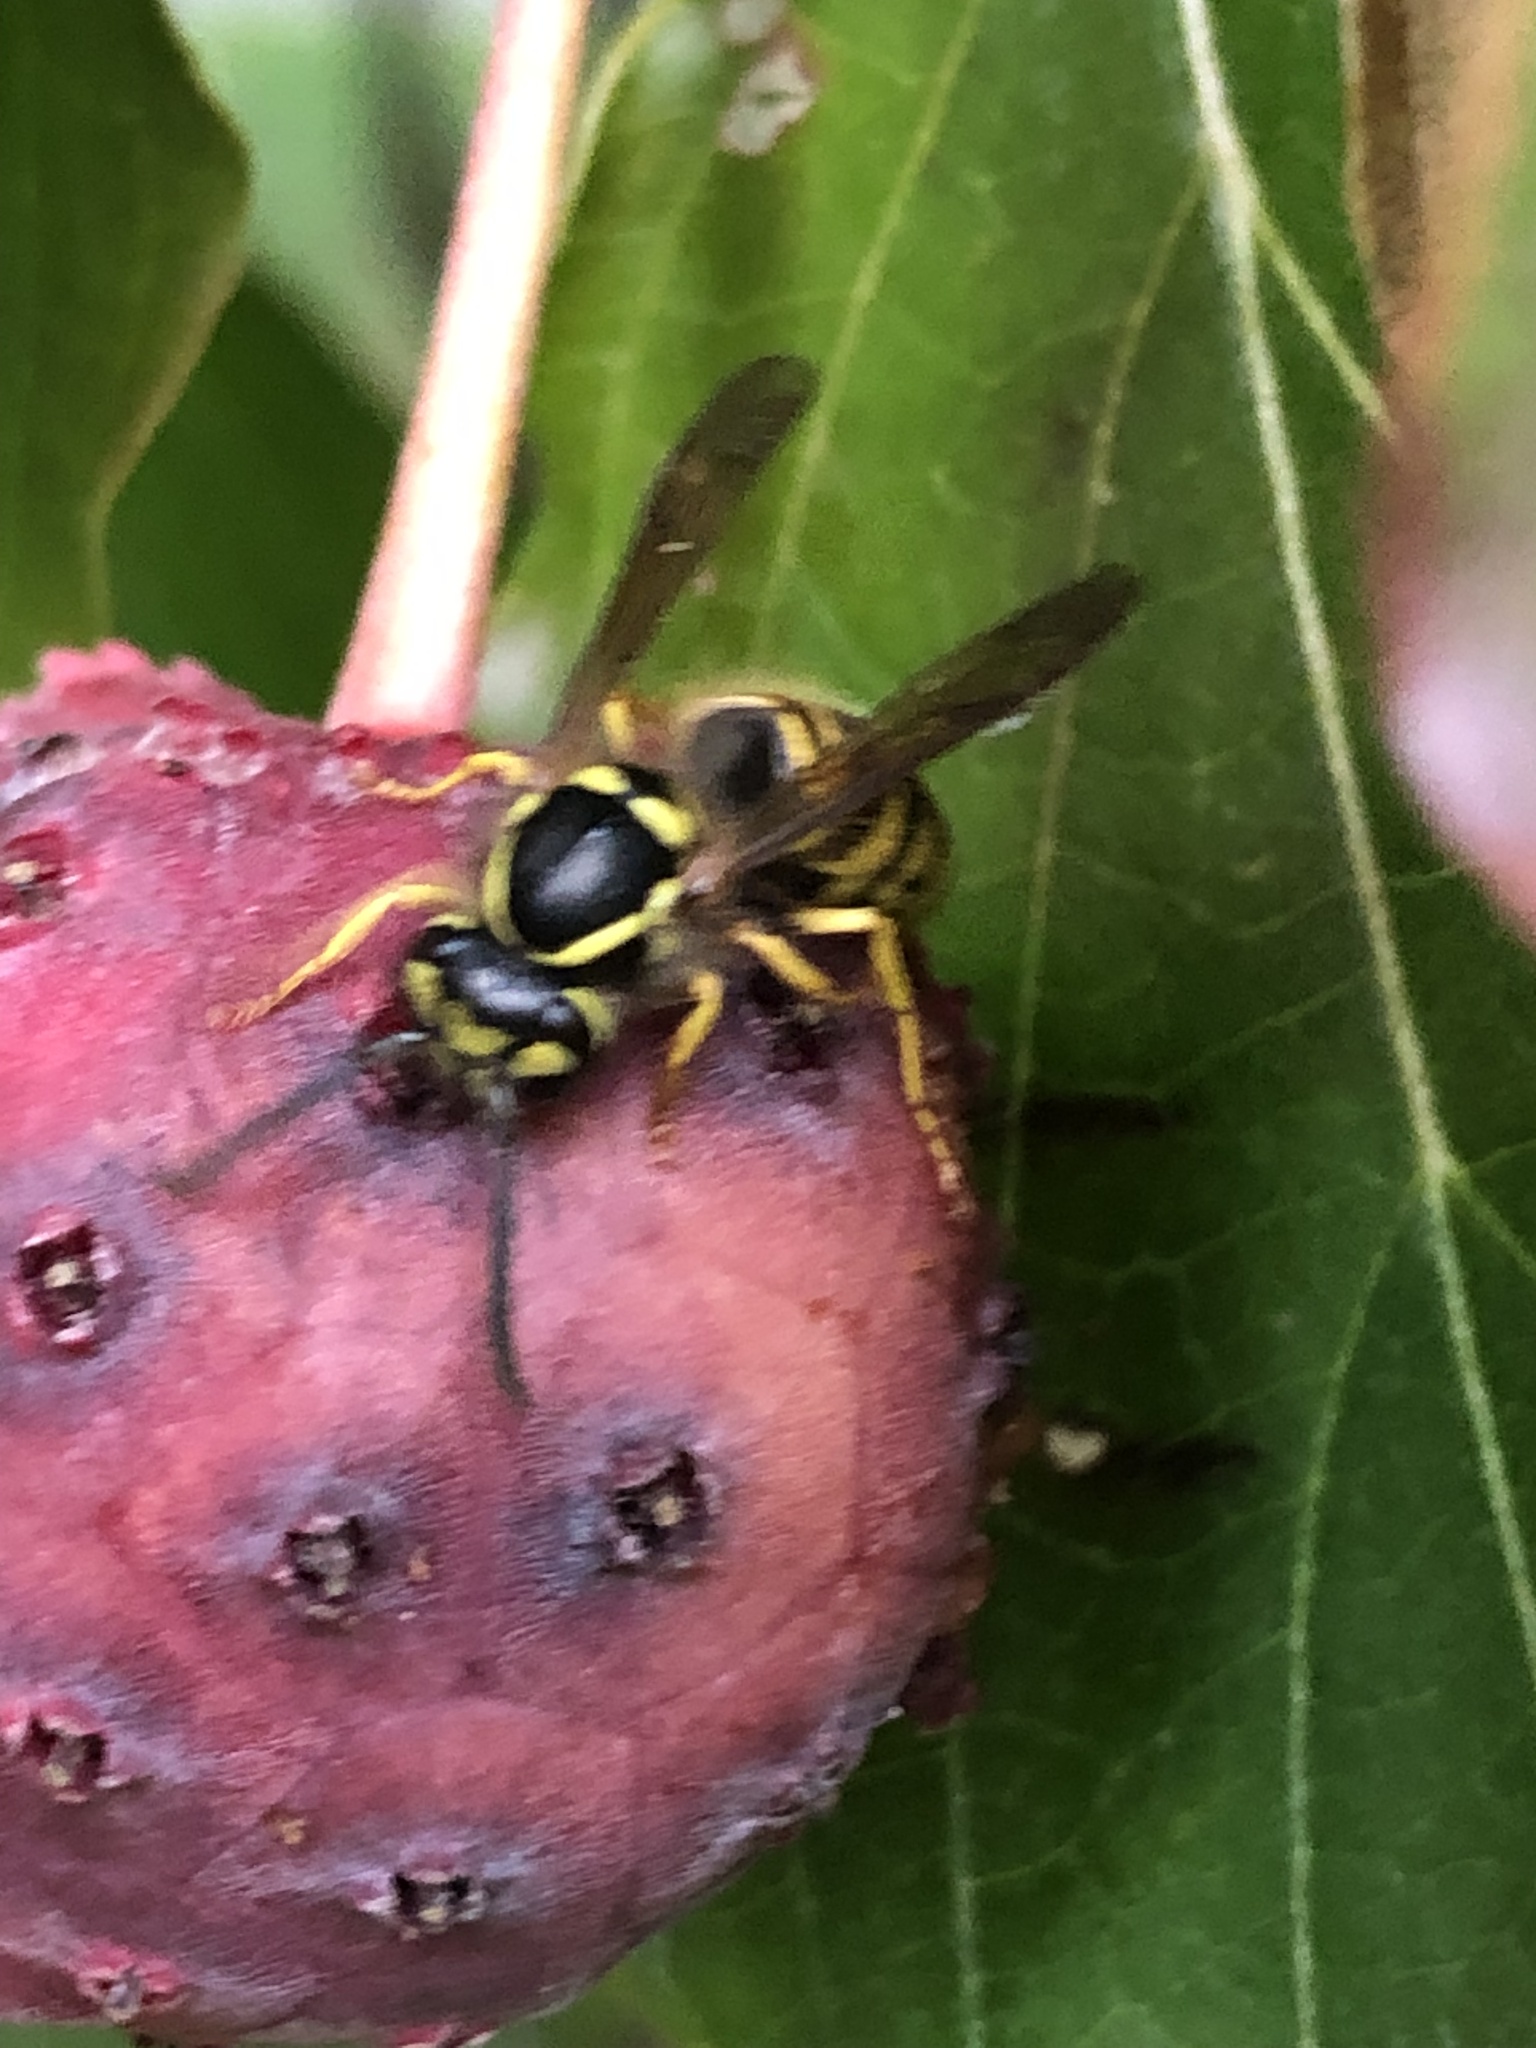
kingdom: Animalia
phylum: Arthropoda
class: Insecta
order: Hymenoptera
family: Vespidae
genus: Vespula
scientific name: Vespula maculifrons
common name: Eastern yellowjacket
